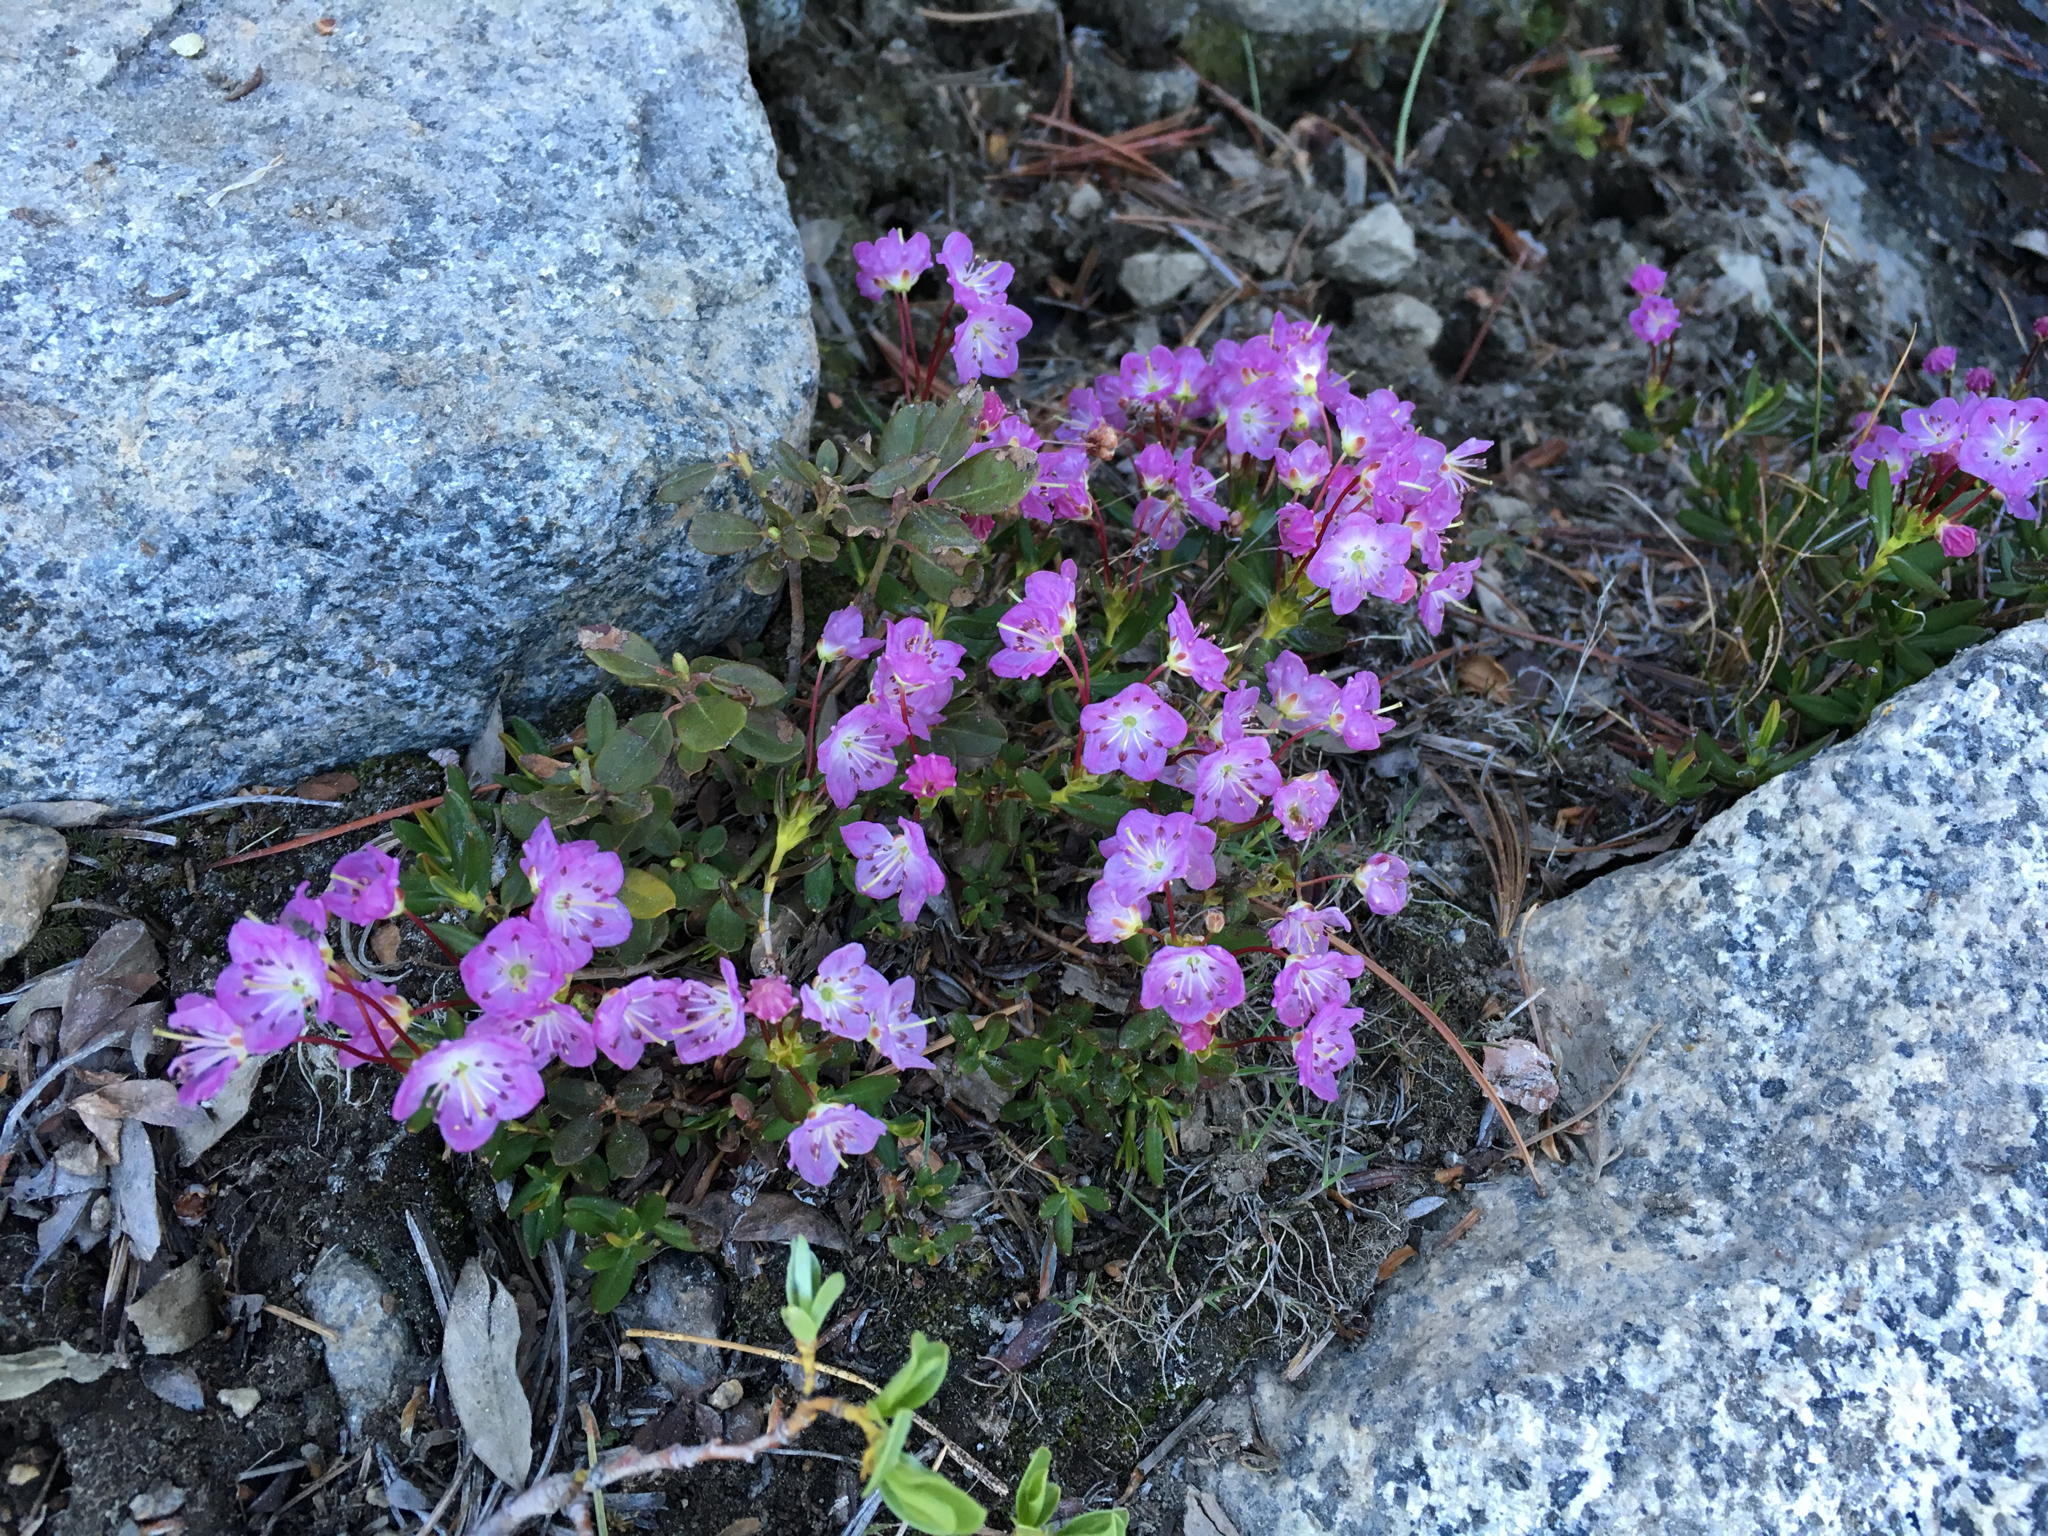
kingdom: Plantae
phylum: Tracheophyta
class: Magnoliopsida
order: Ericales
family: Ericaceae
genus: Kalmia
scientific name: Kalmia microphylla
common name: Alpine bog laurel
